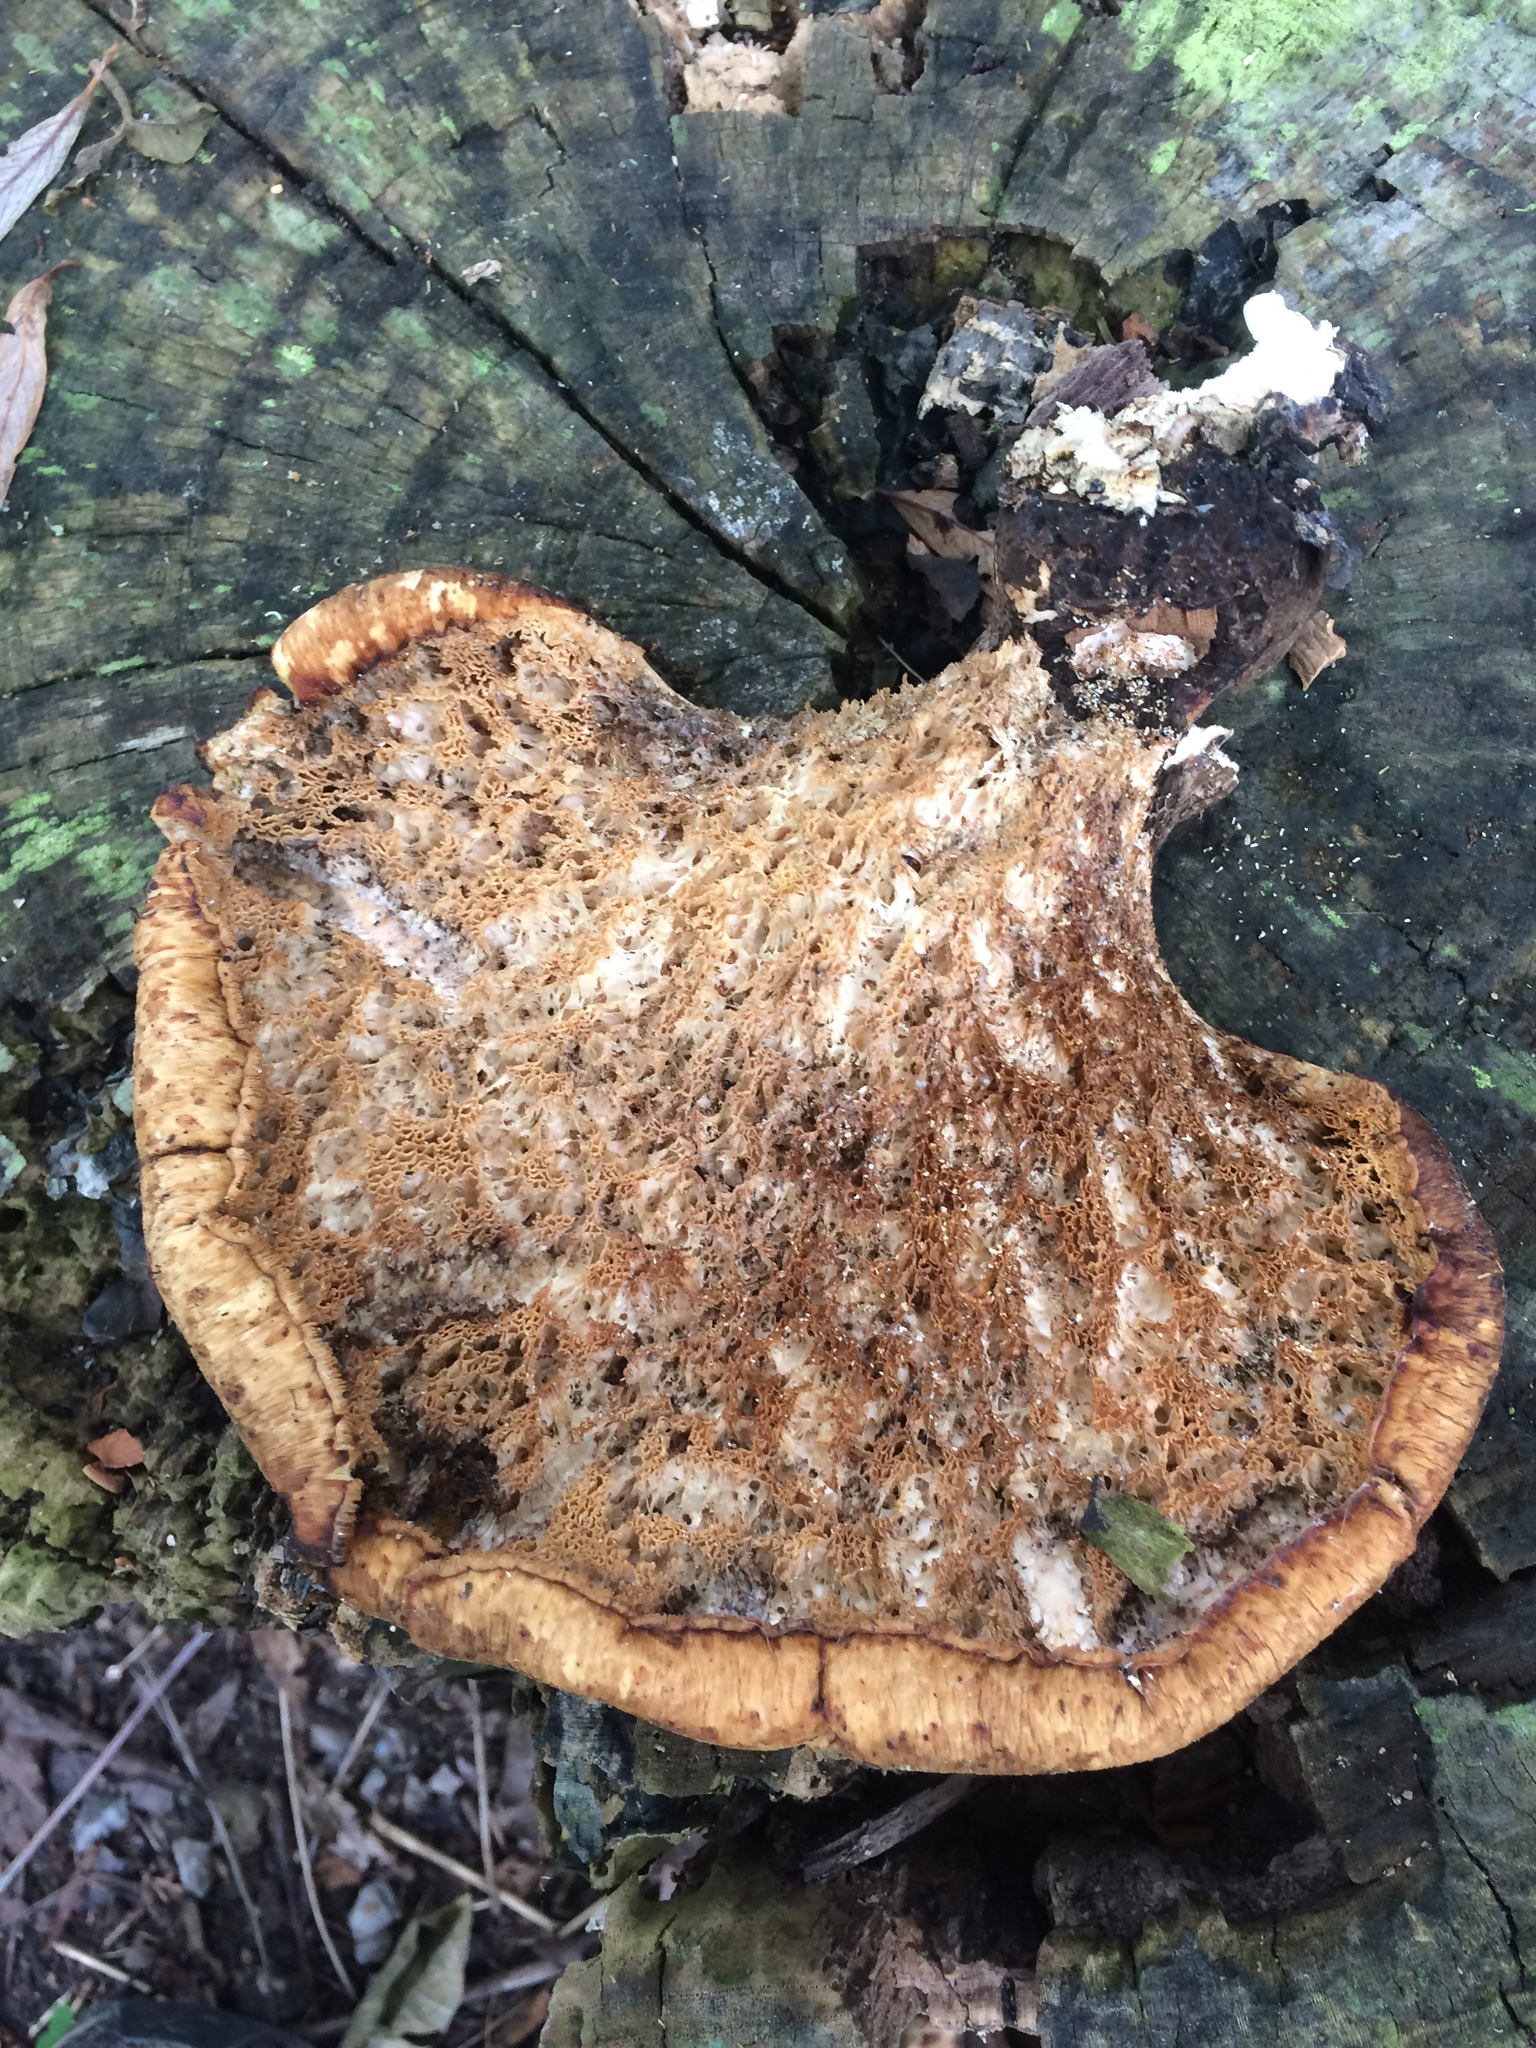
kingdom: Fungi
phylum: Basidiomycota
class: Agaricomycetes
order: Polyporales
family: Polyporaceae
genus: Cerioporus
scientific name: Cerioporus squamosus
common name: Dryad's saddle
